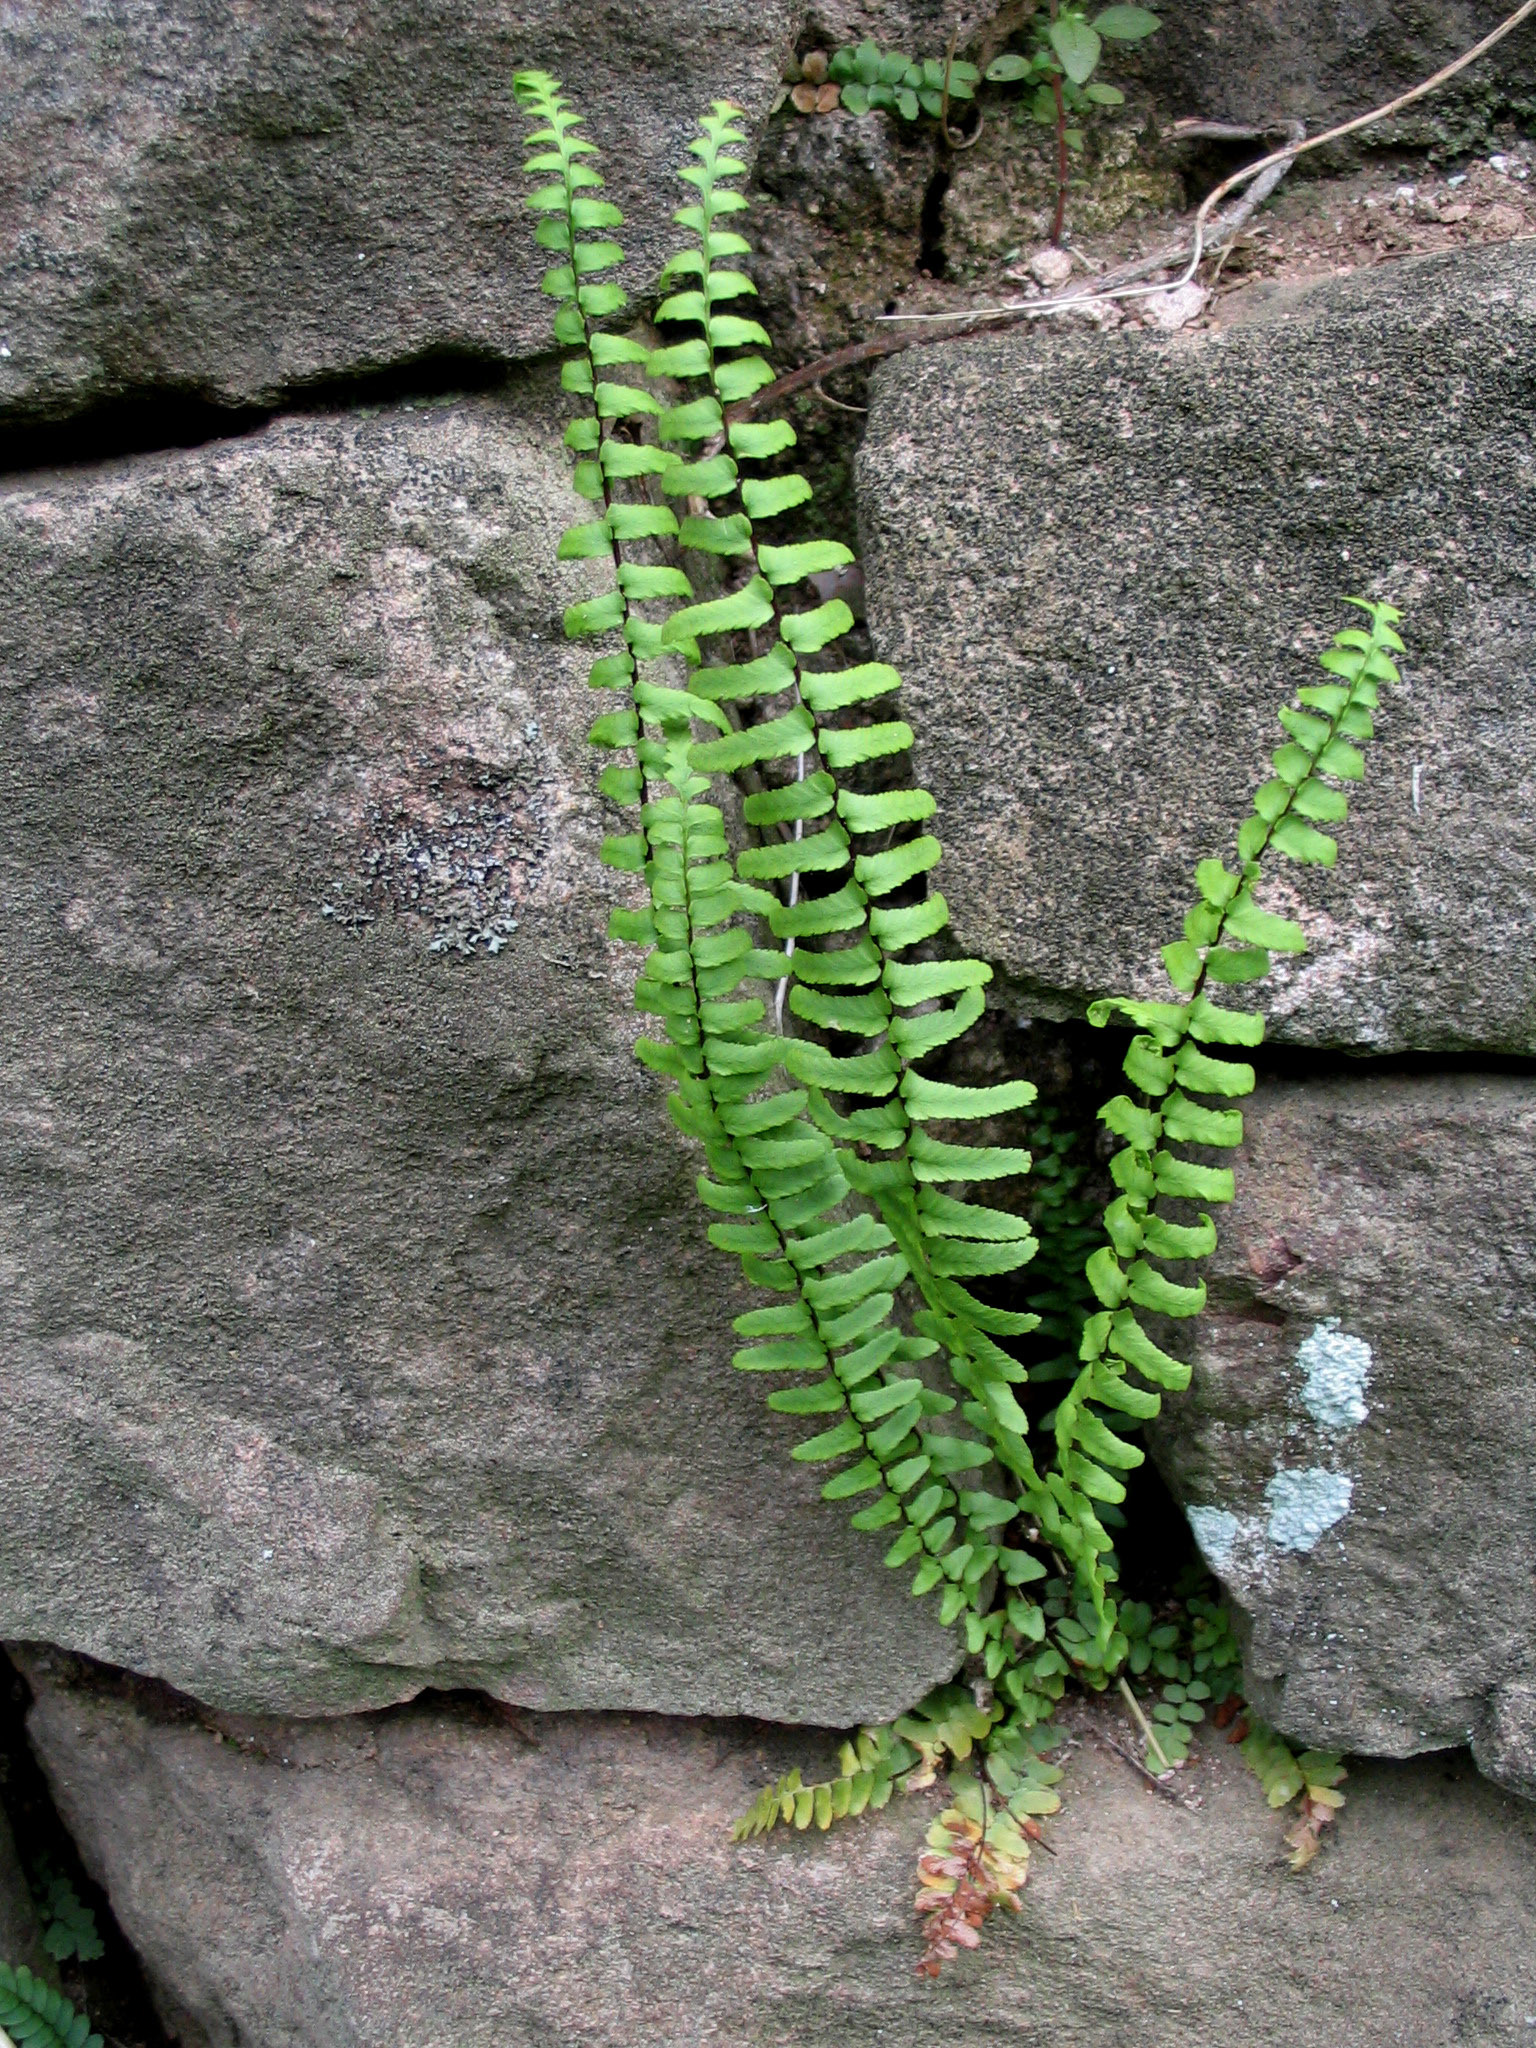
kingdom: Plantae
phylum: Tracheophyta
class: Polypodiopsida
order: Polypodiales
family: Aspleniaceae
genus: Asplenium
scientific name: Asplenium platyneuron
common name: Ebony spleenwort
